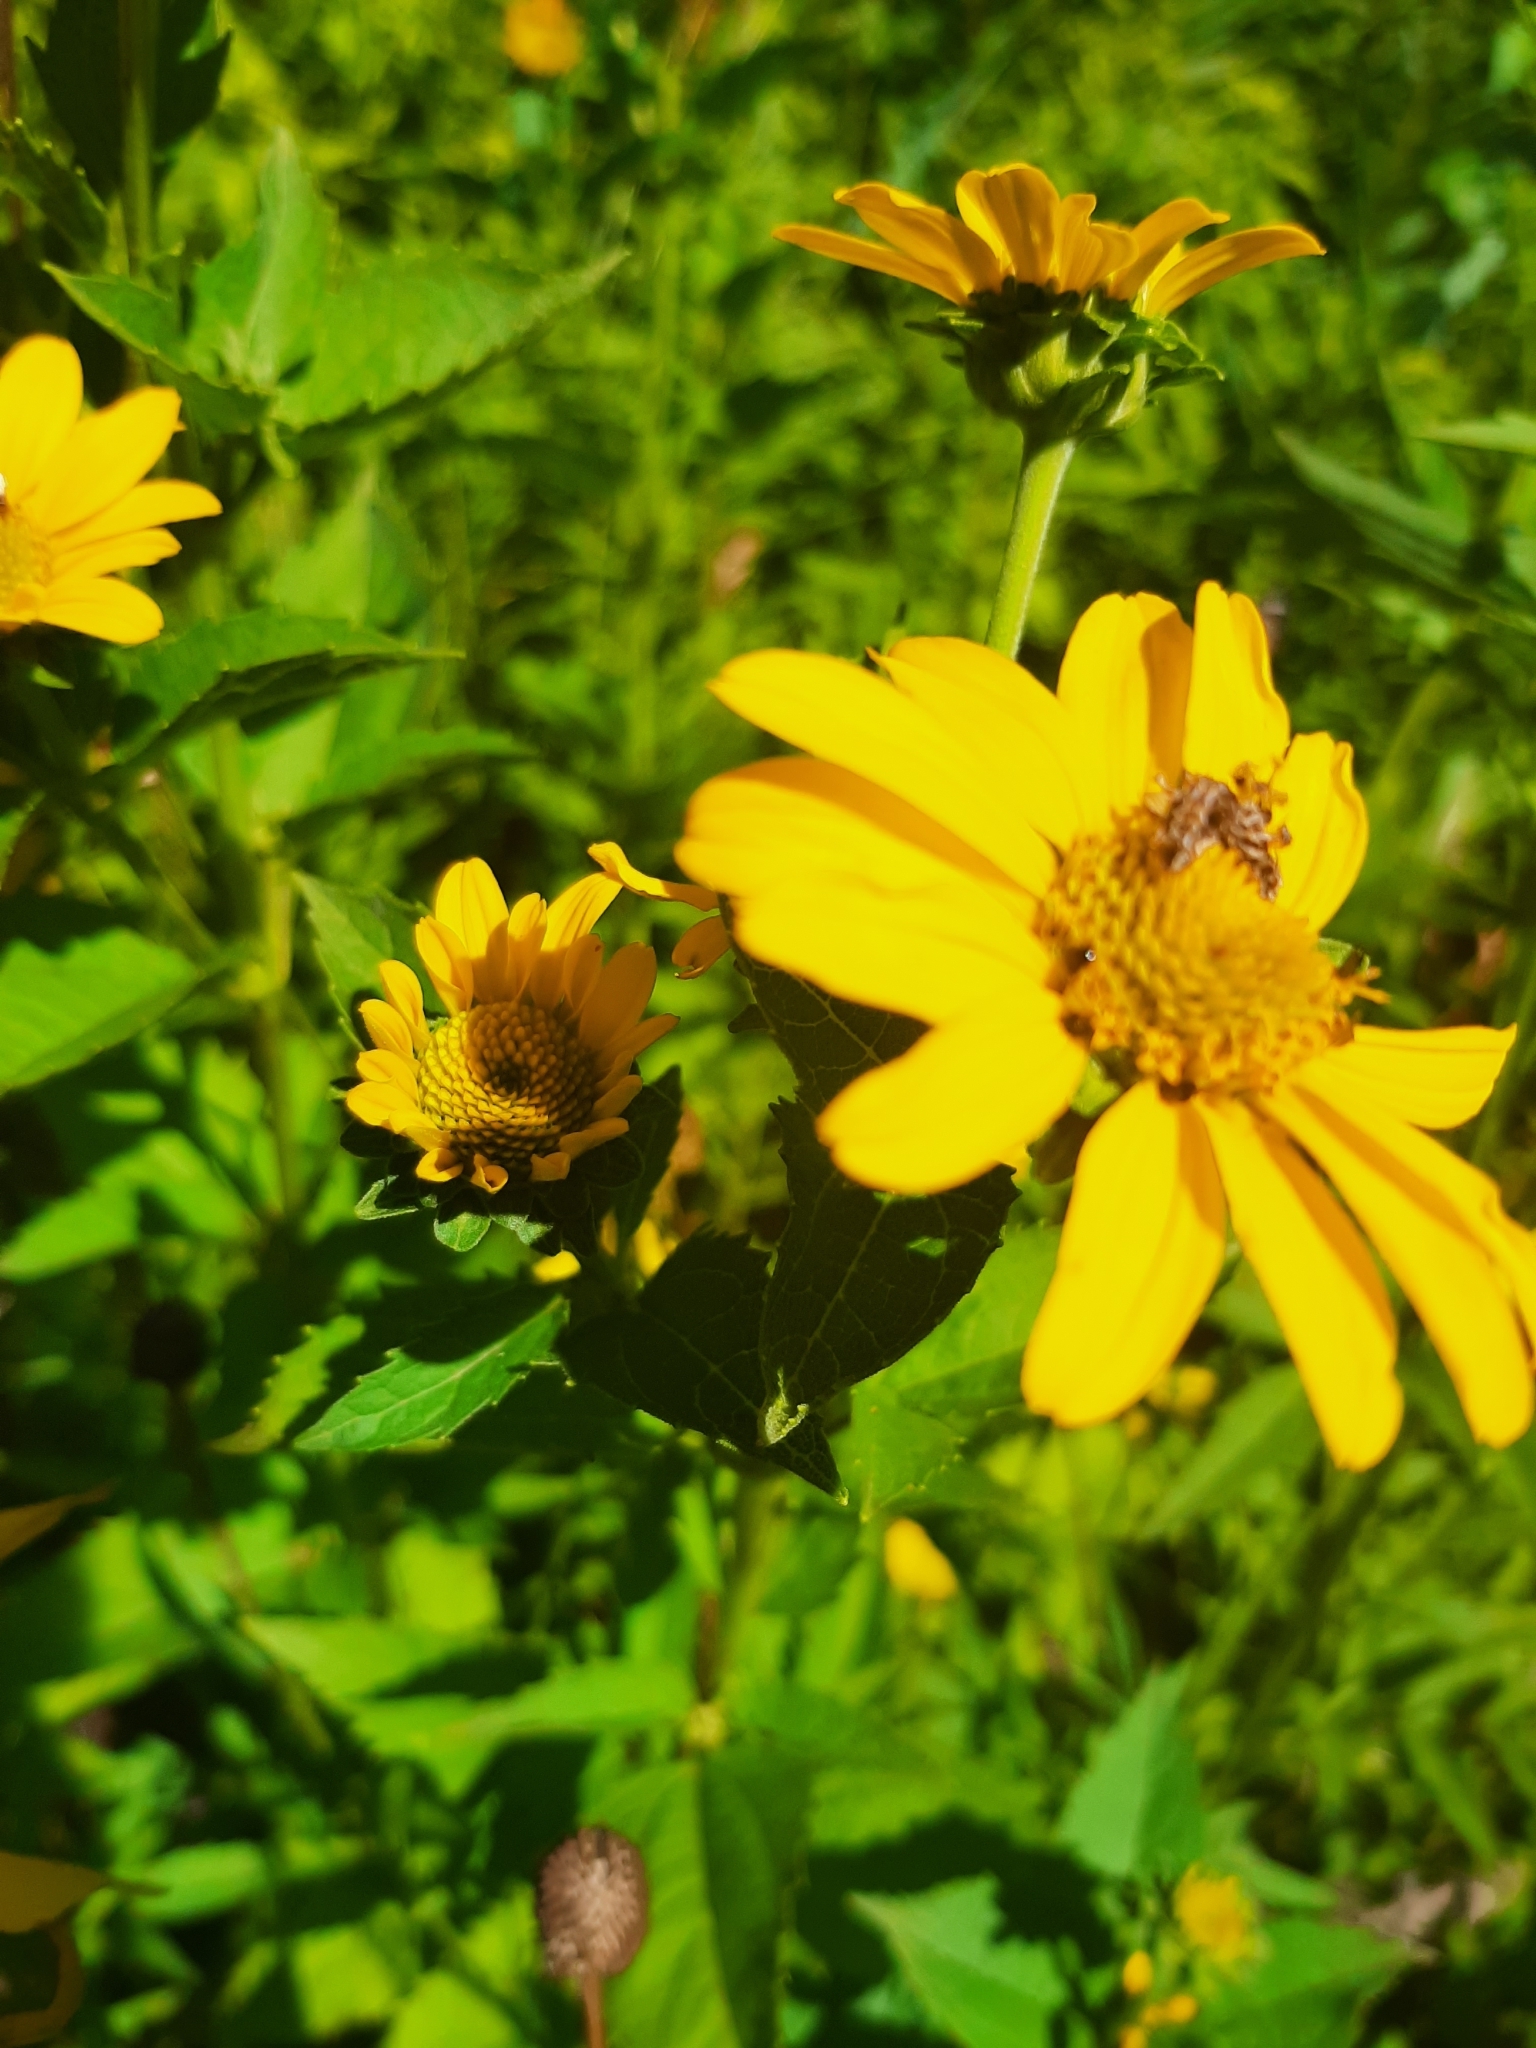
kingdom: Plantae
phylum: Tracheophyta
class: Magnoliopsida
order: Asterales
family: Asteraceae
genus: Heliopsis
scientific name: Heliopsis helianthoides
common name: False sunflower
